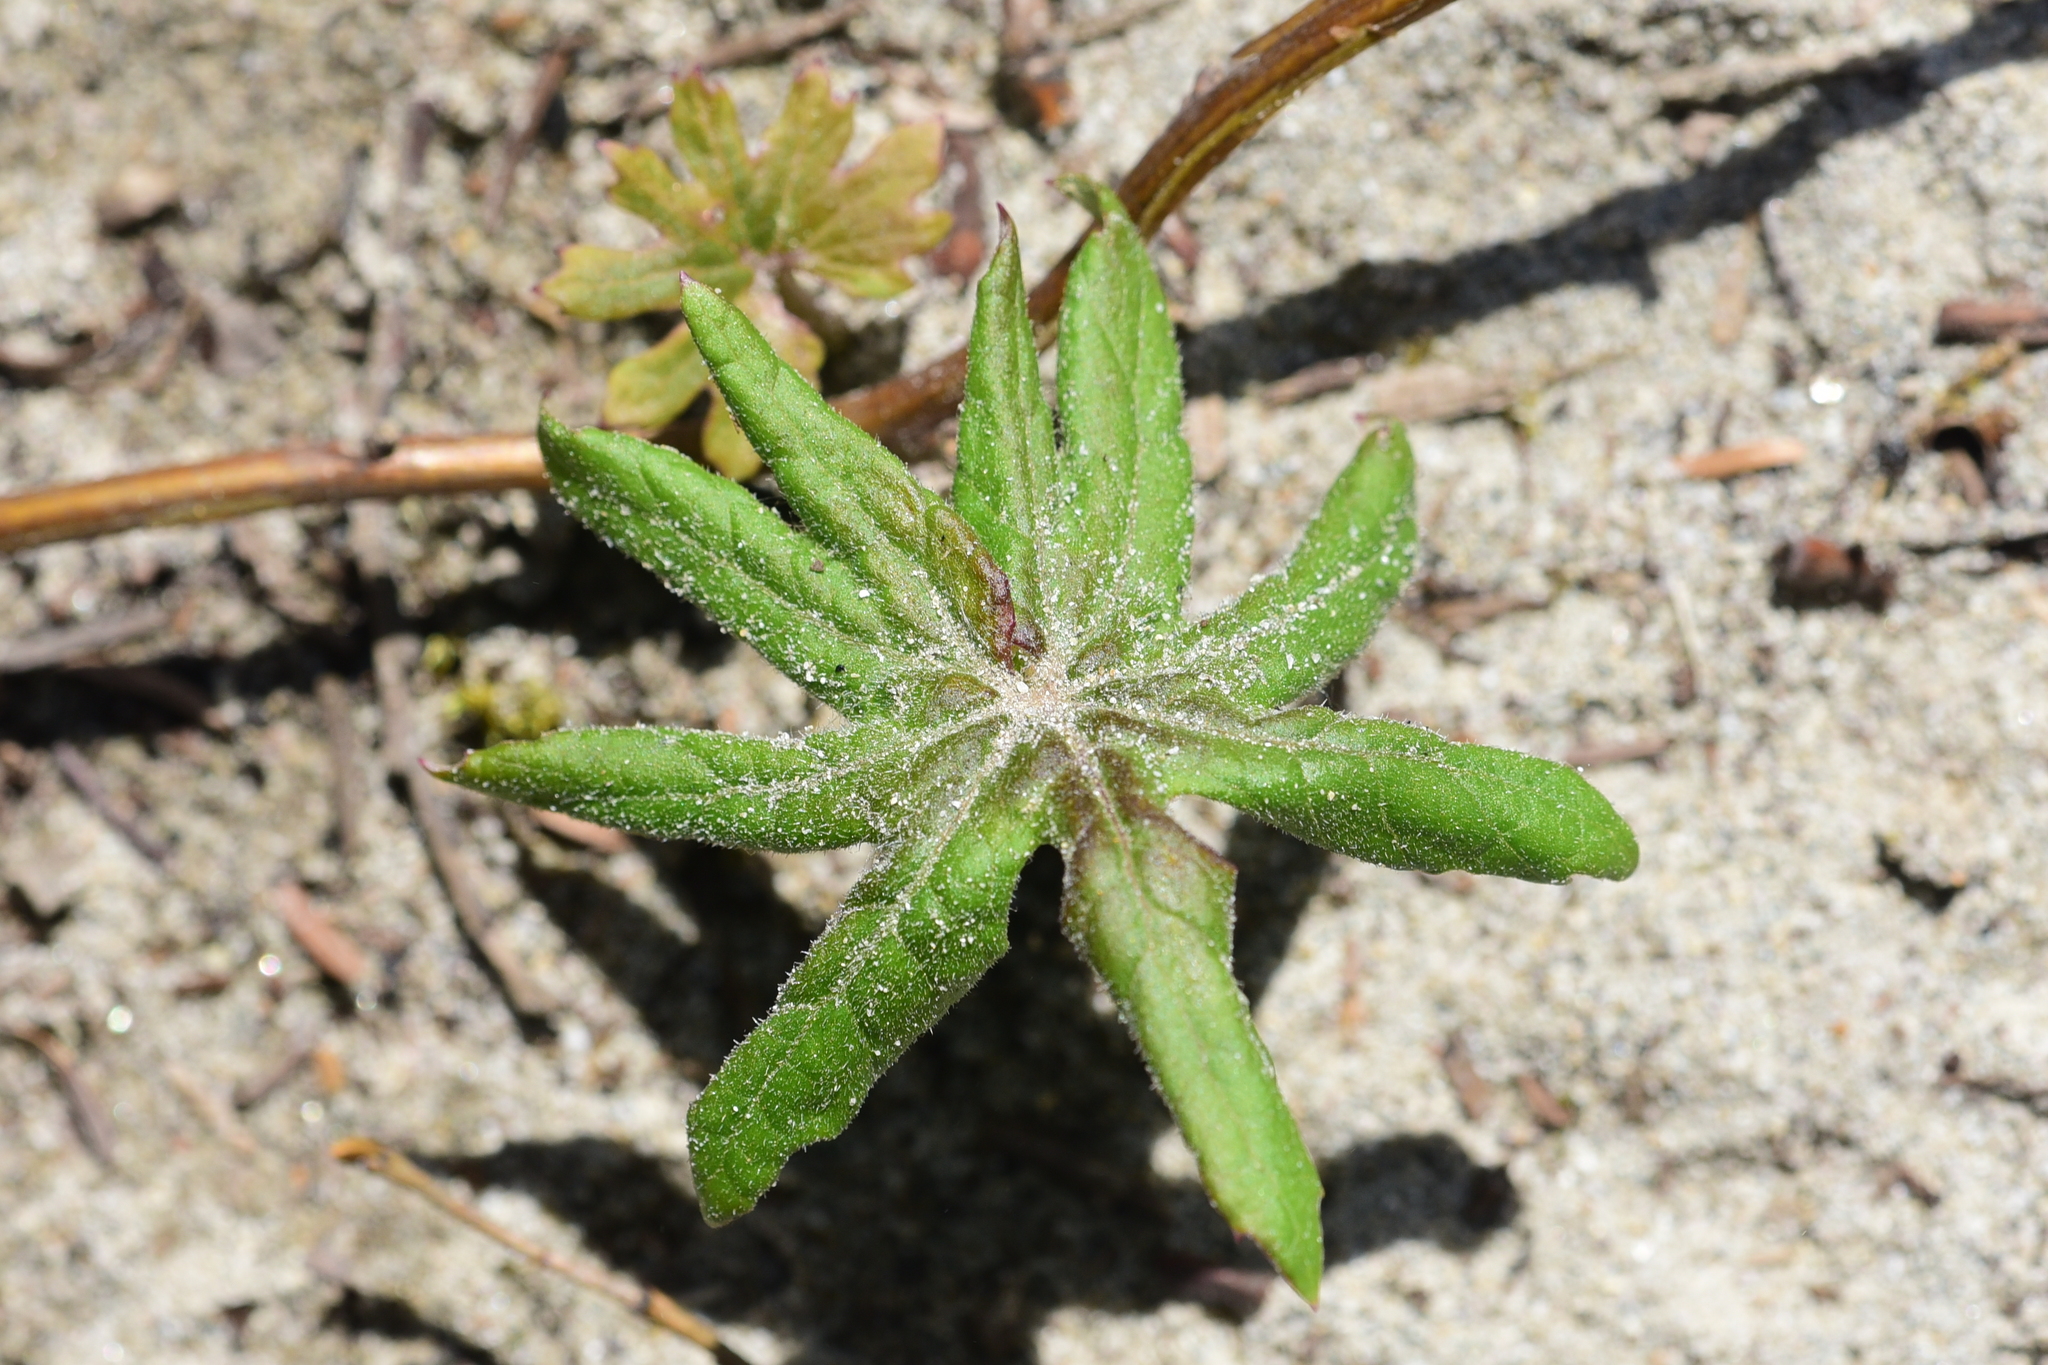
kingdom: Plantae
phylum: Tracheophyta
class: Magnoliopsida
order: Asterales
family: Asteraceae
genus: Petasites
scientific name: Petasites frigidus
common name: Arctic butterbur
